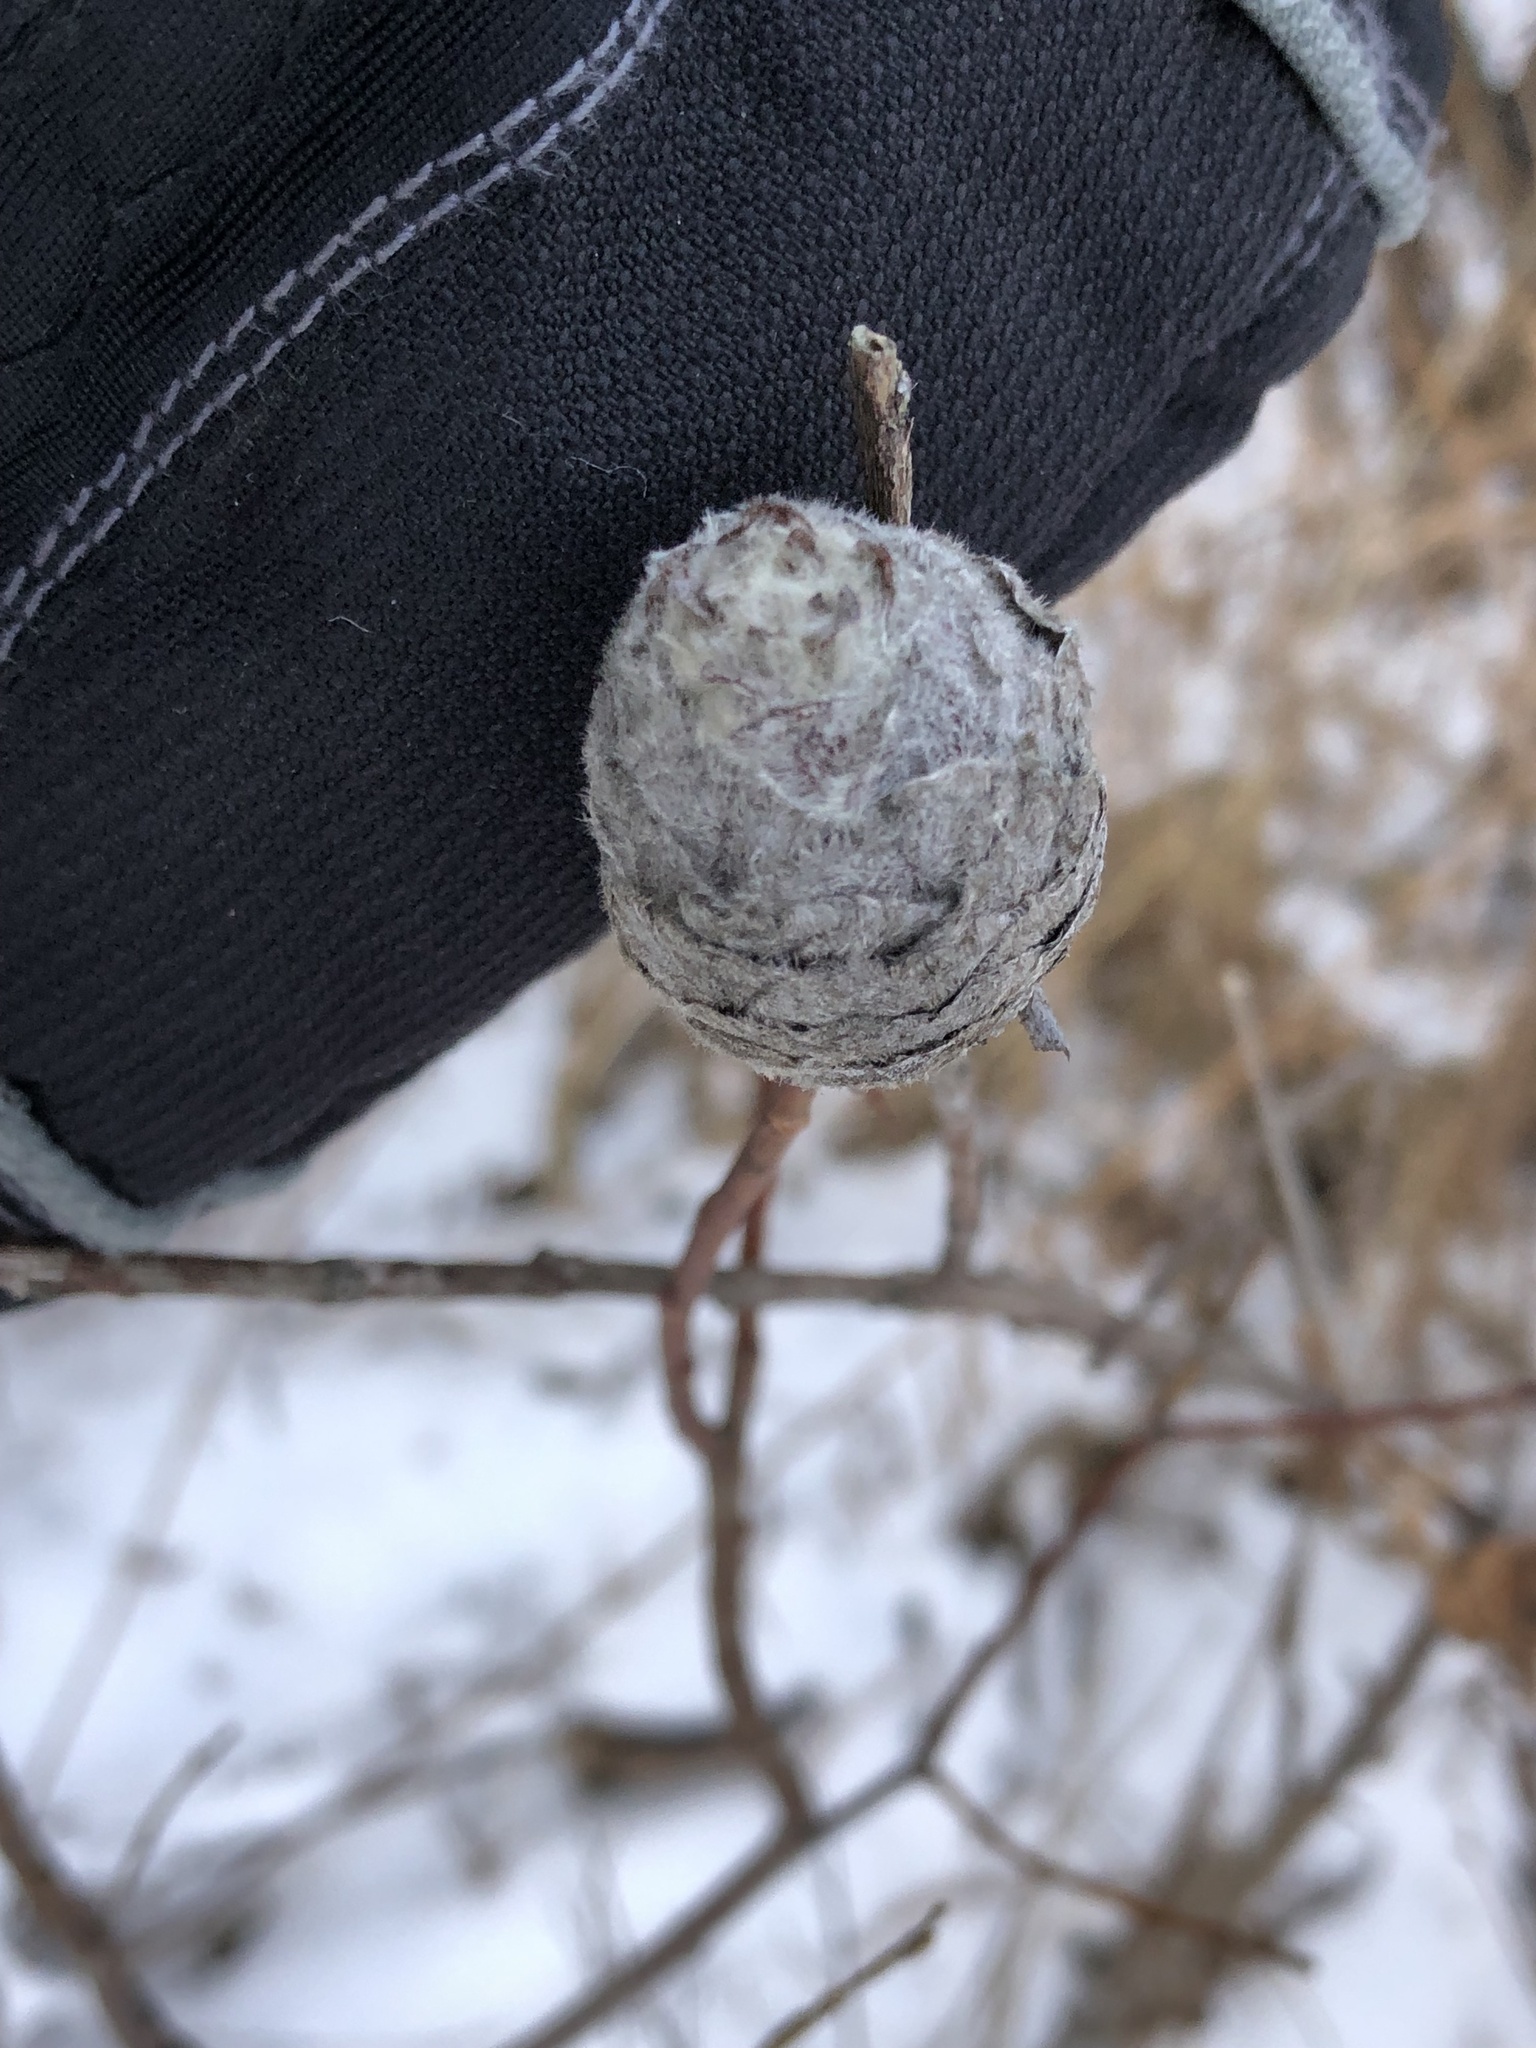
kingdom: Animalia
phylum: Arthropoda
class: Insecta
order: Diptera
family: Cecidomyiidae
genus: Rabdophaga
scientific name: Rabdophaga strobiloides
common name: Willow pinecone gall midge
